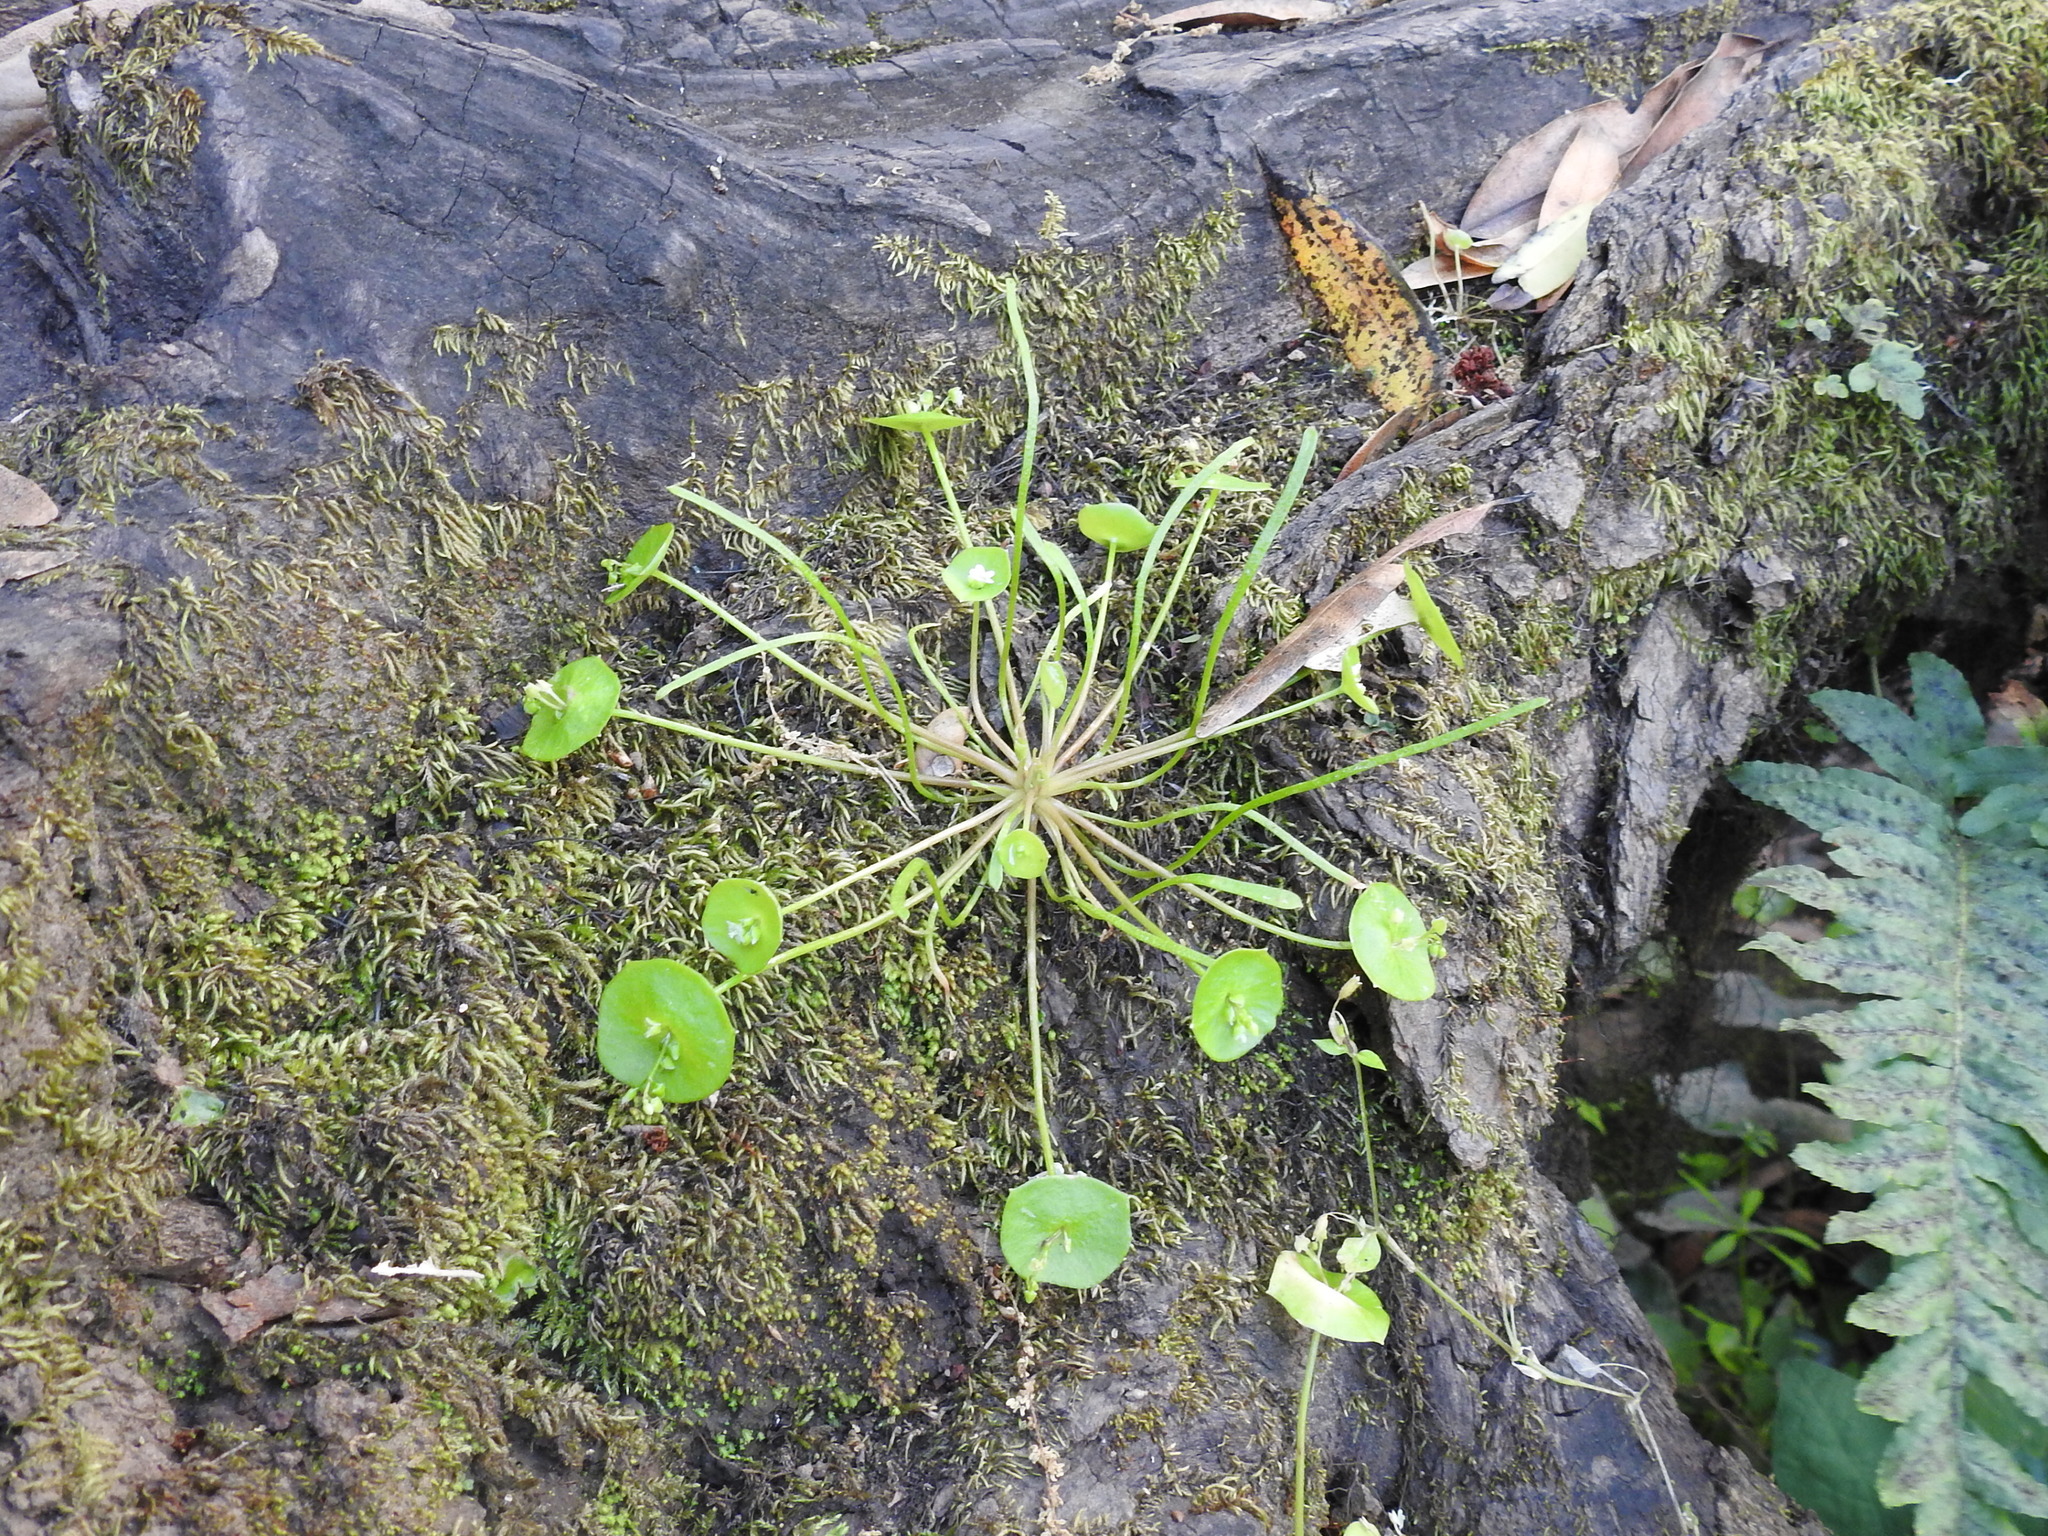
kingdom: Plantae
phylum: Tracheophyta
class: Magnoliopsida
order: Caryophyllales
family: Montiaceae
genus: Claytonia
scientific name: Claytonia parviflora
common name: Indian-lettuce
